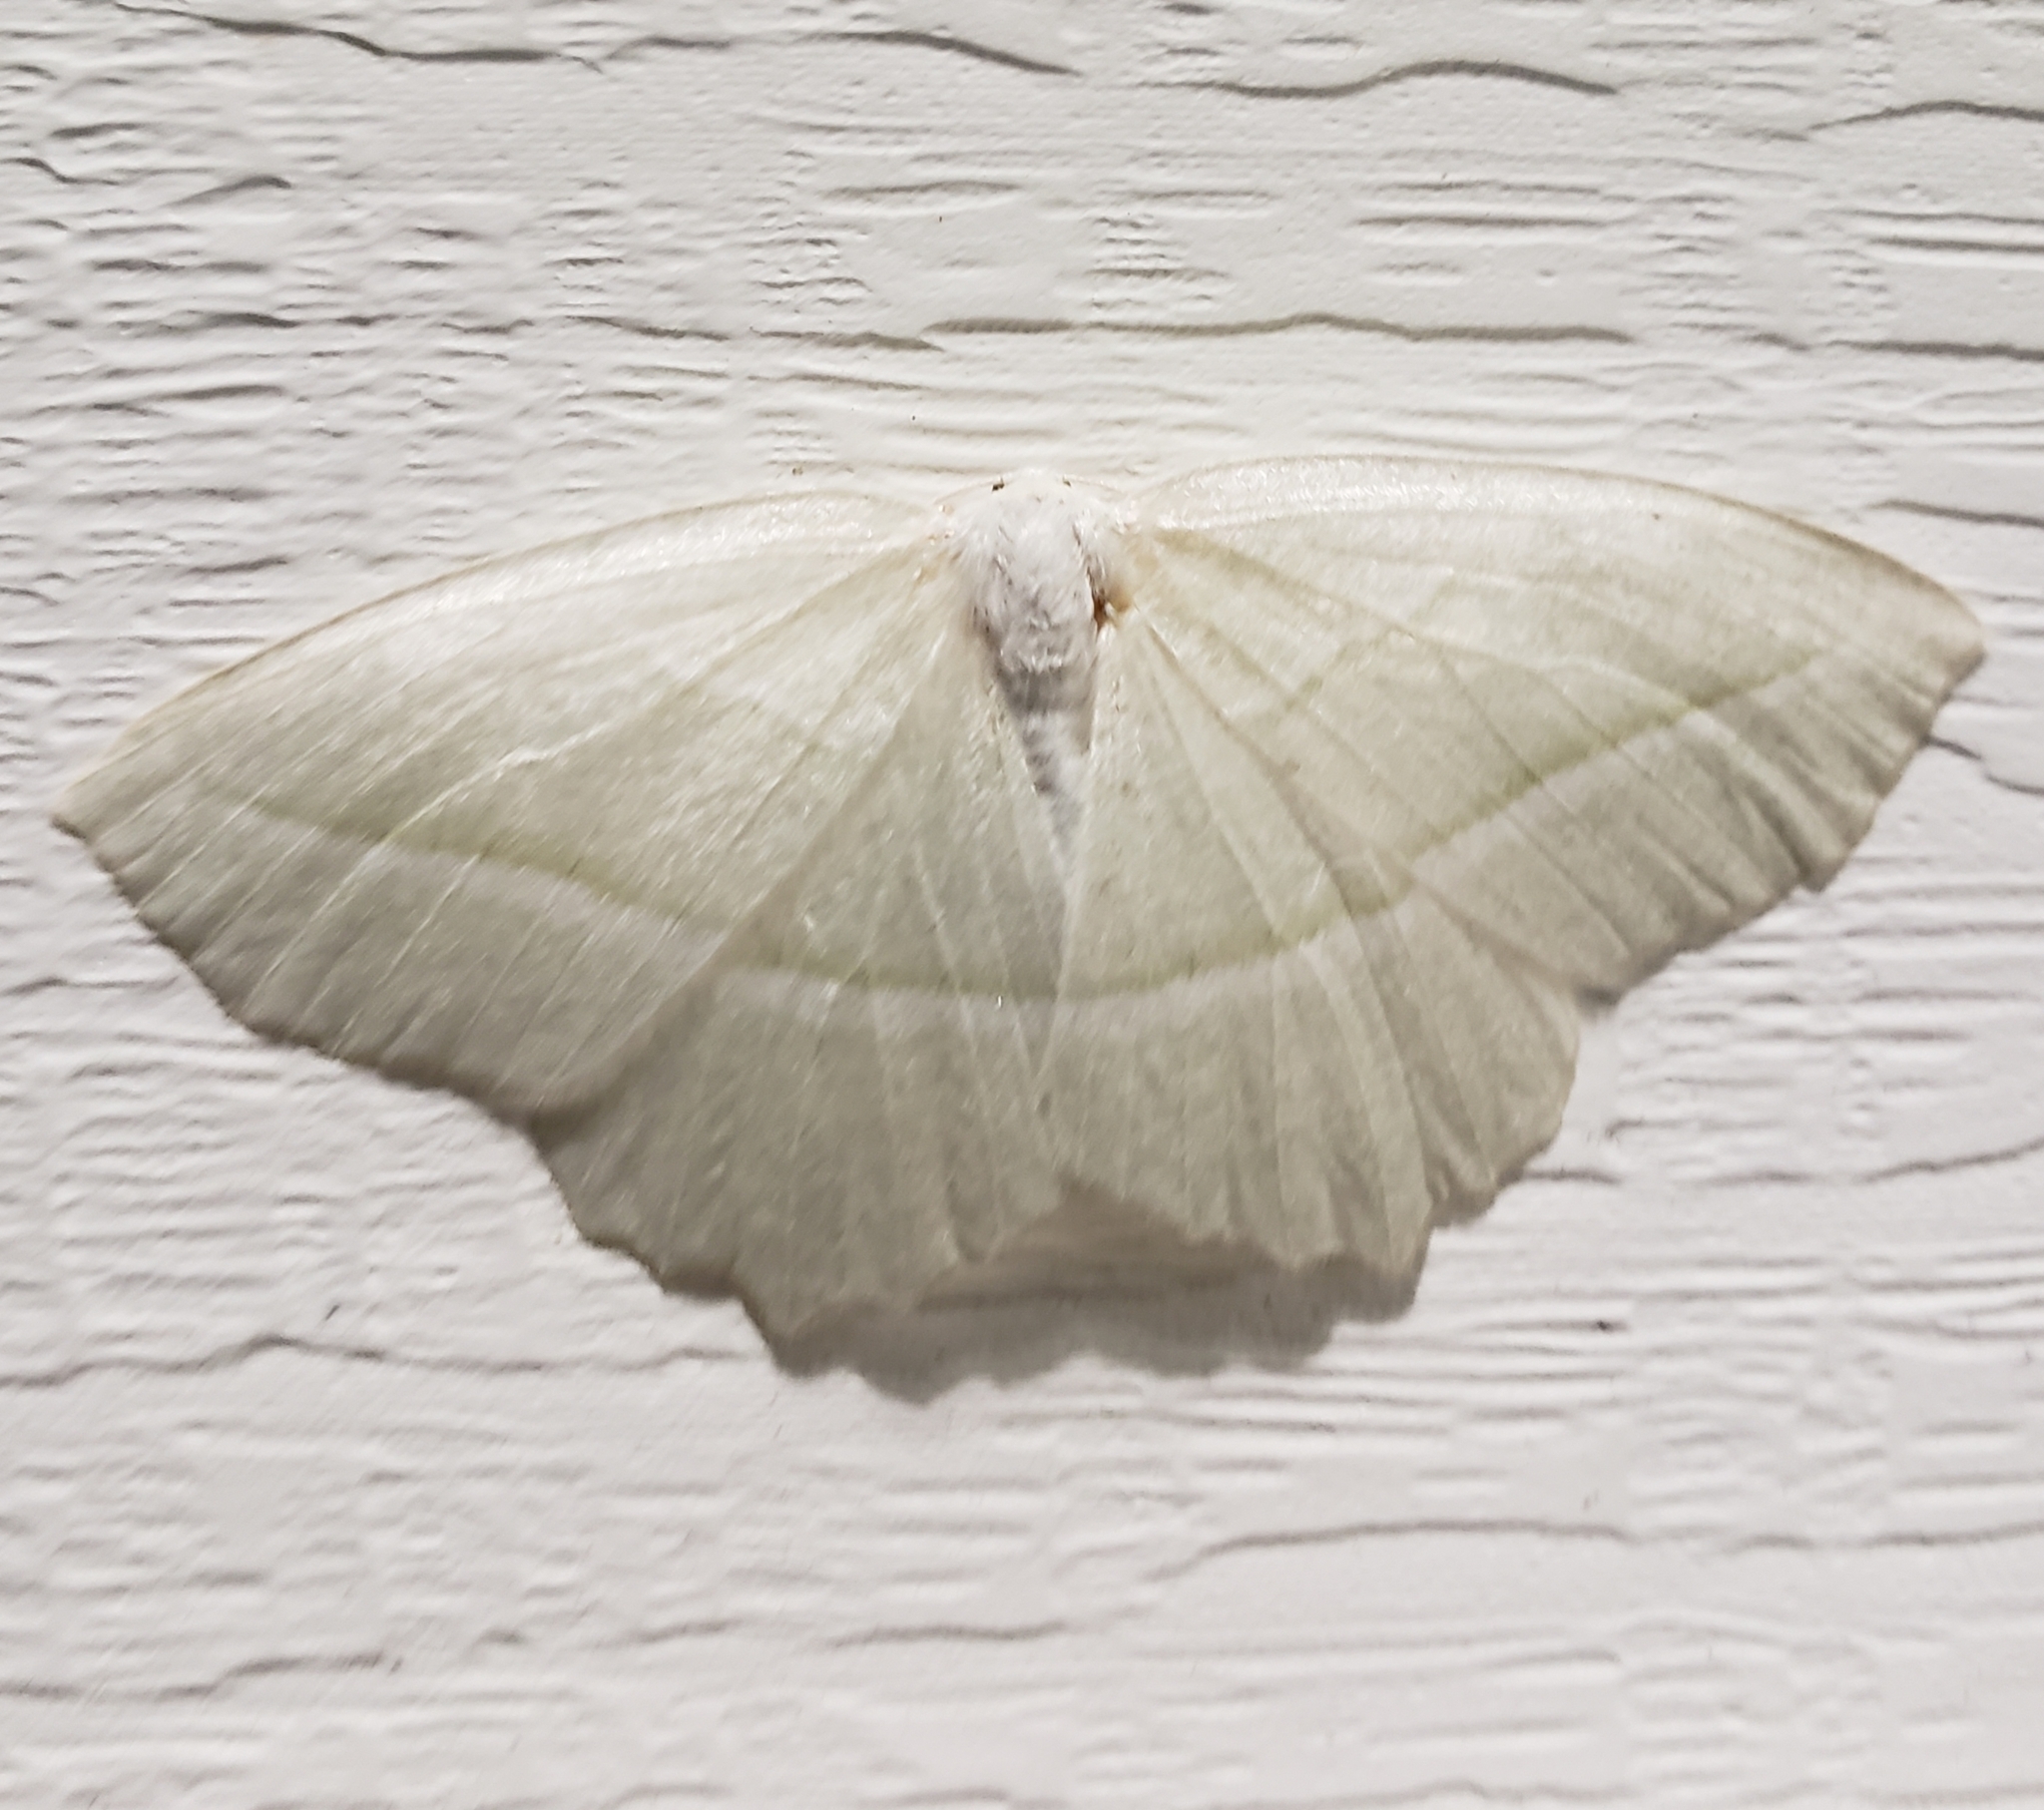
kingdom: Animalia
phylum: Arthropoda
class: Insecta
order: Lepidoptera
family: Geometridae
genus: Campaea
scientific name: Campaea perlata
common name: Fringed looper
